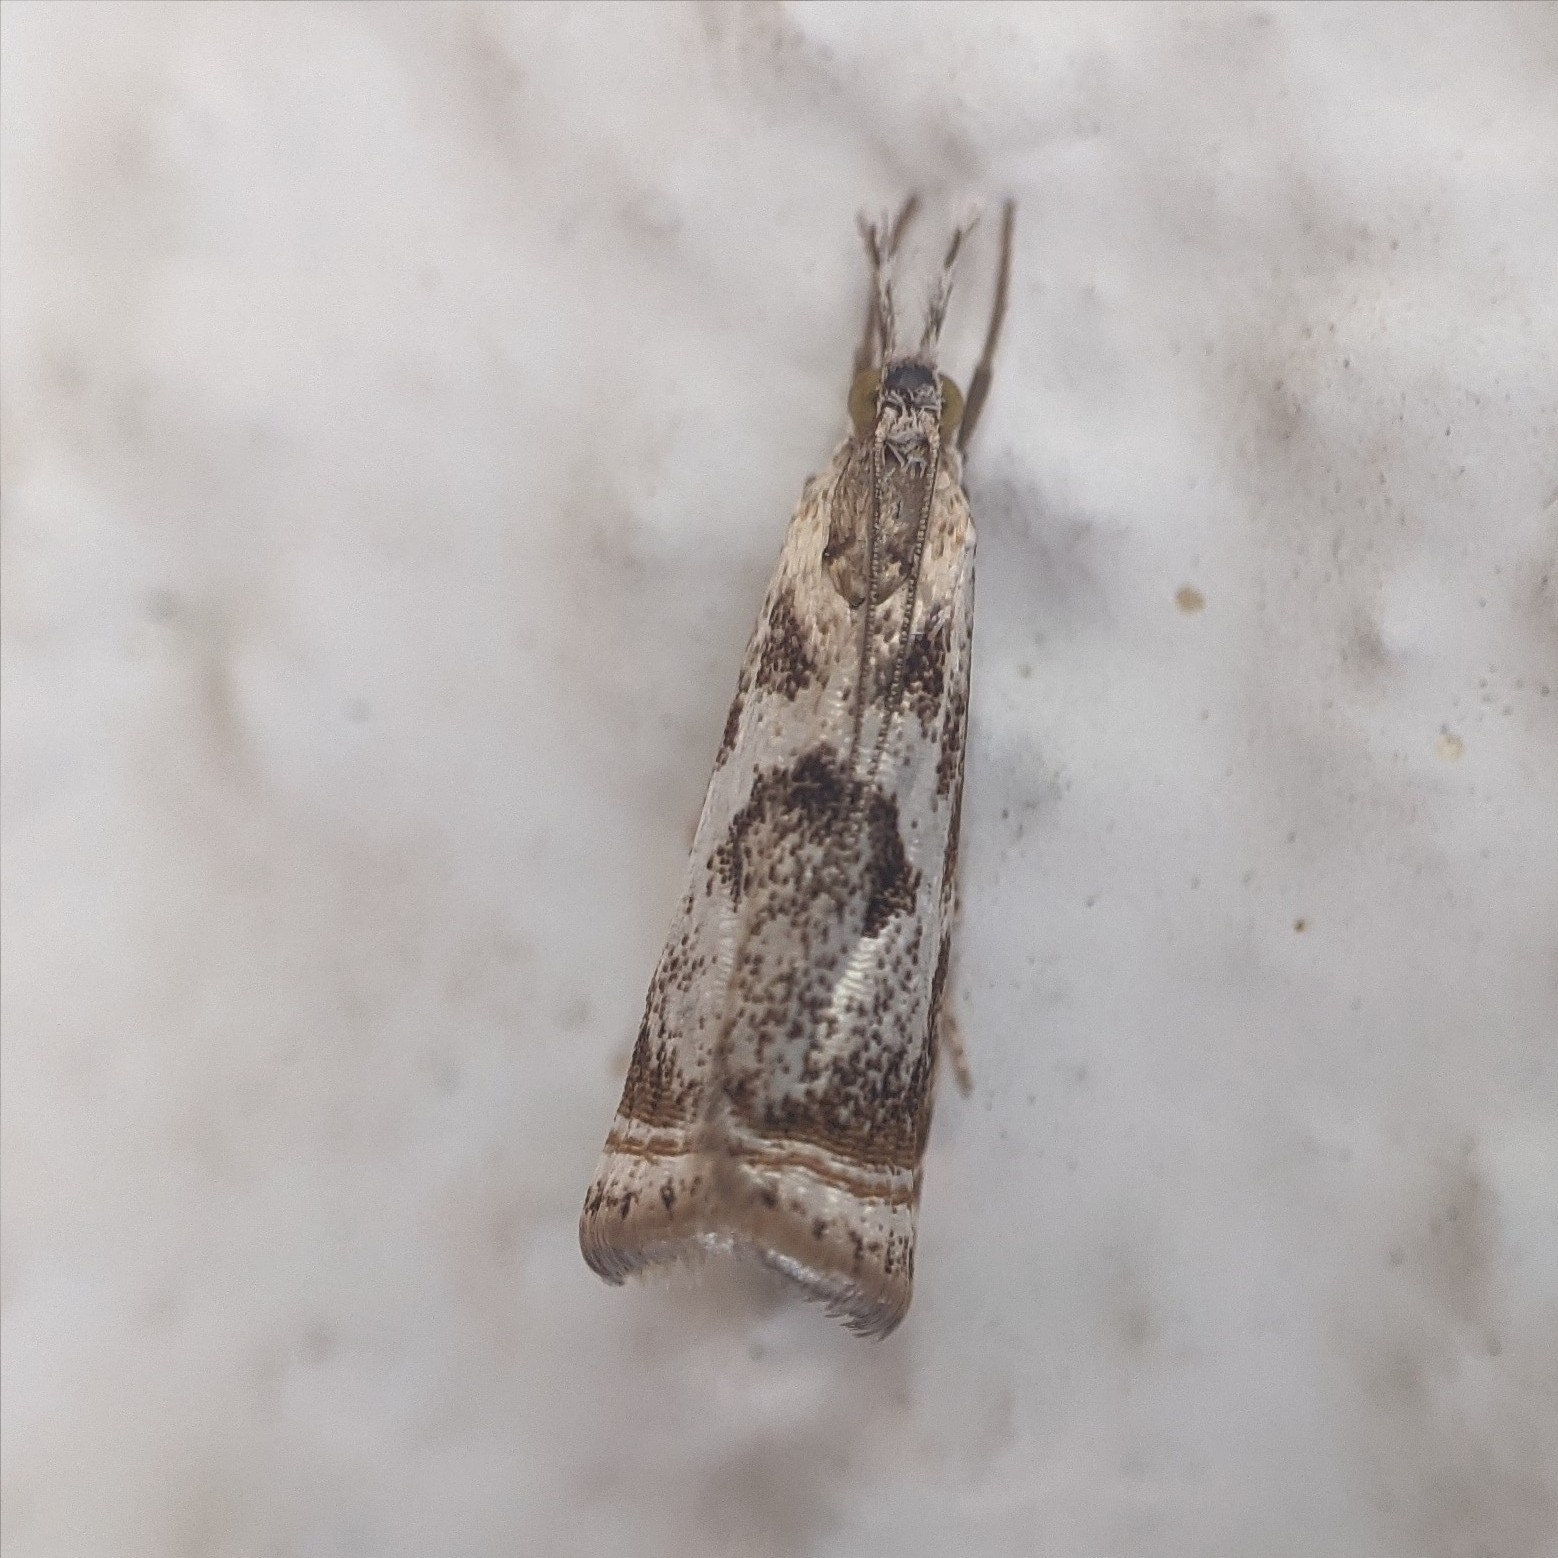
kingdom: Animalia
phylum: Arthropoda
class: Insecta
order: Lepidoptera
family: Crambidae
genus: Microcrambus
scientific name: Microcrambus elegans
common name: Elegant grass-veneer
